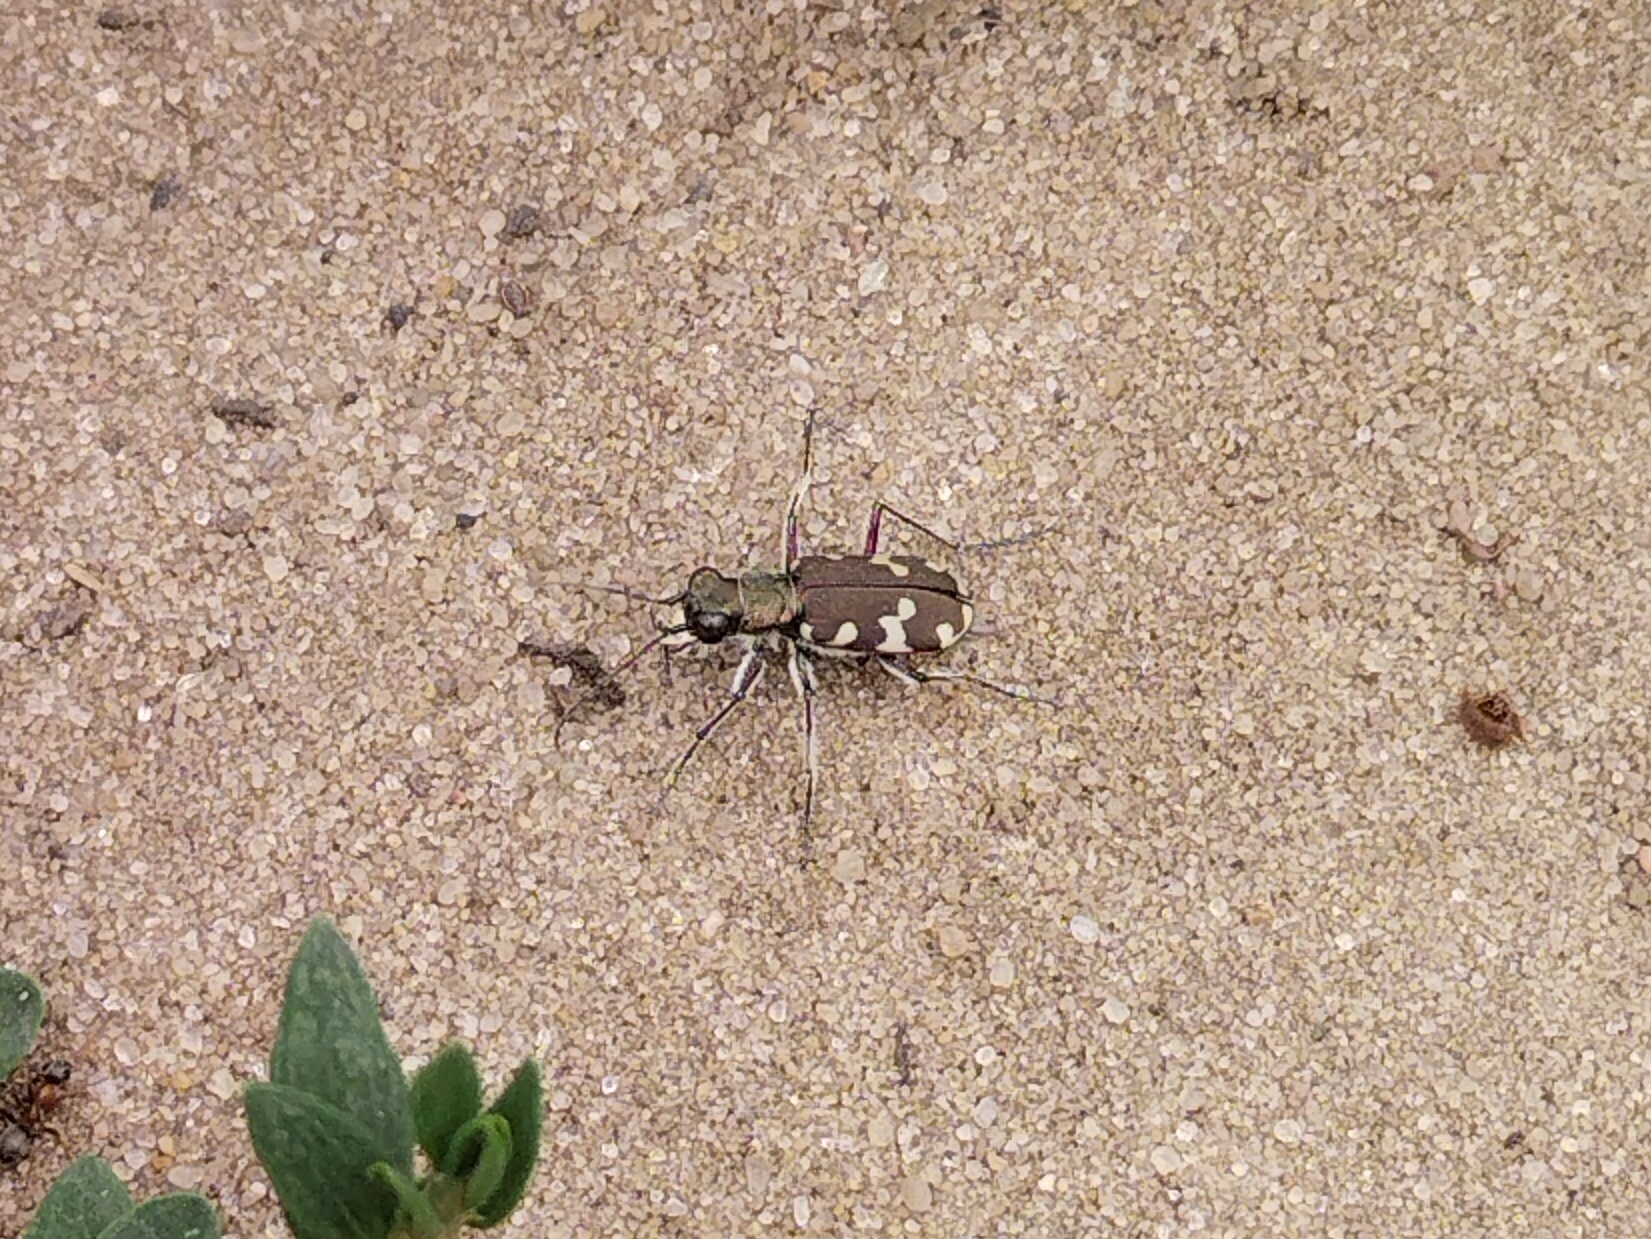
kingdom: Animalia
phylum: Arthropoda
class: Insecta
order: Coleoptera
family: Carabidae
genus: Cicindela
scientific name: Cicindela hybrida
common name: Northern dune tiger beetle
